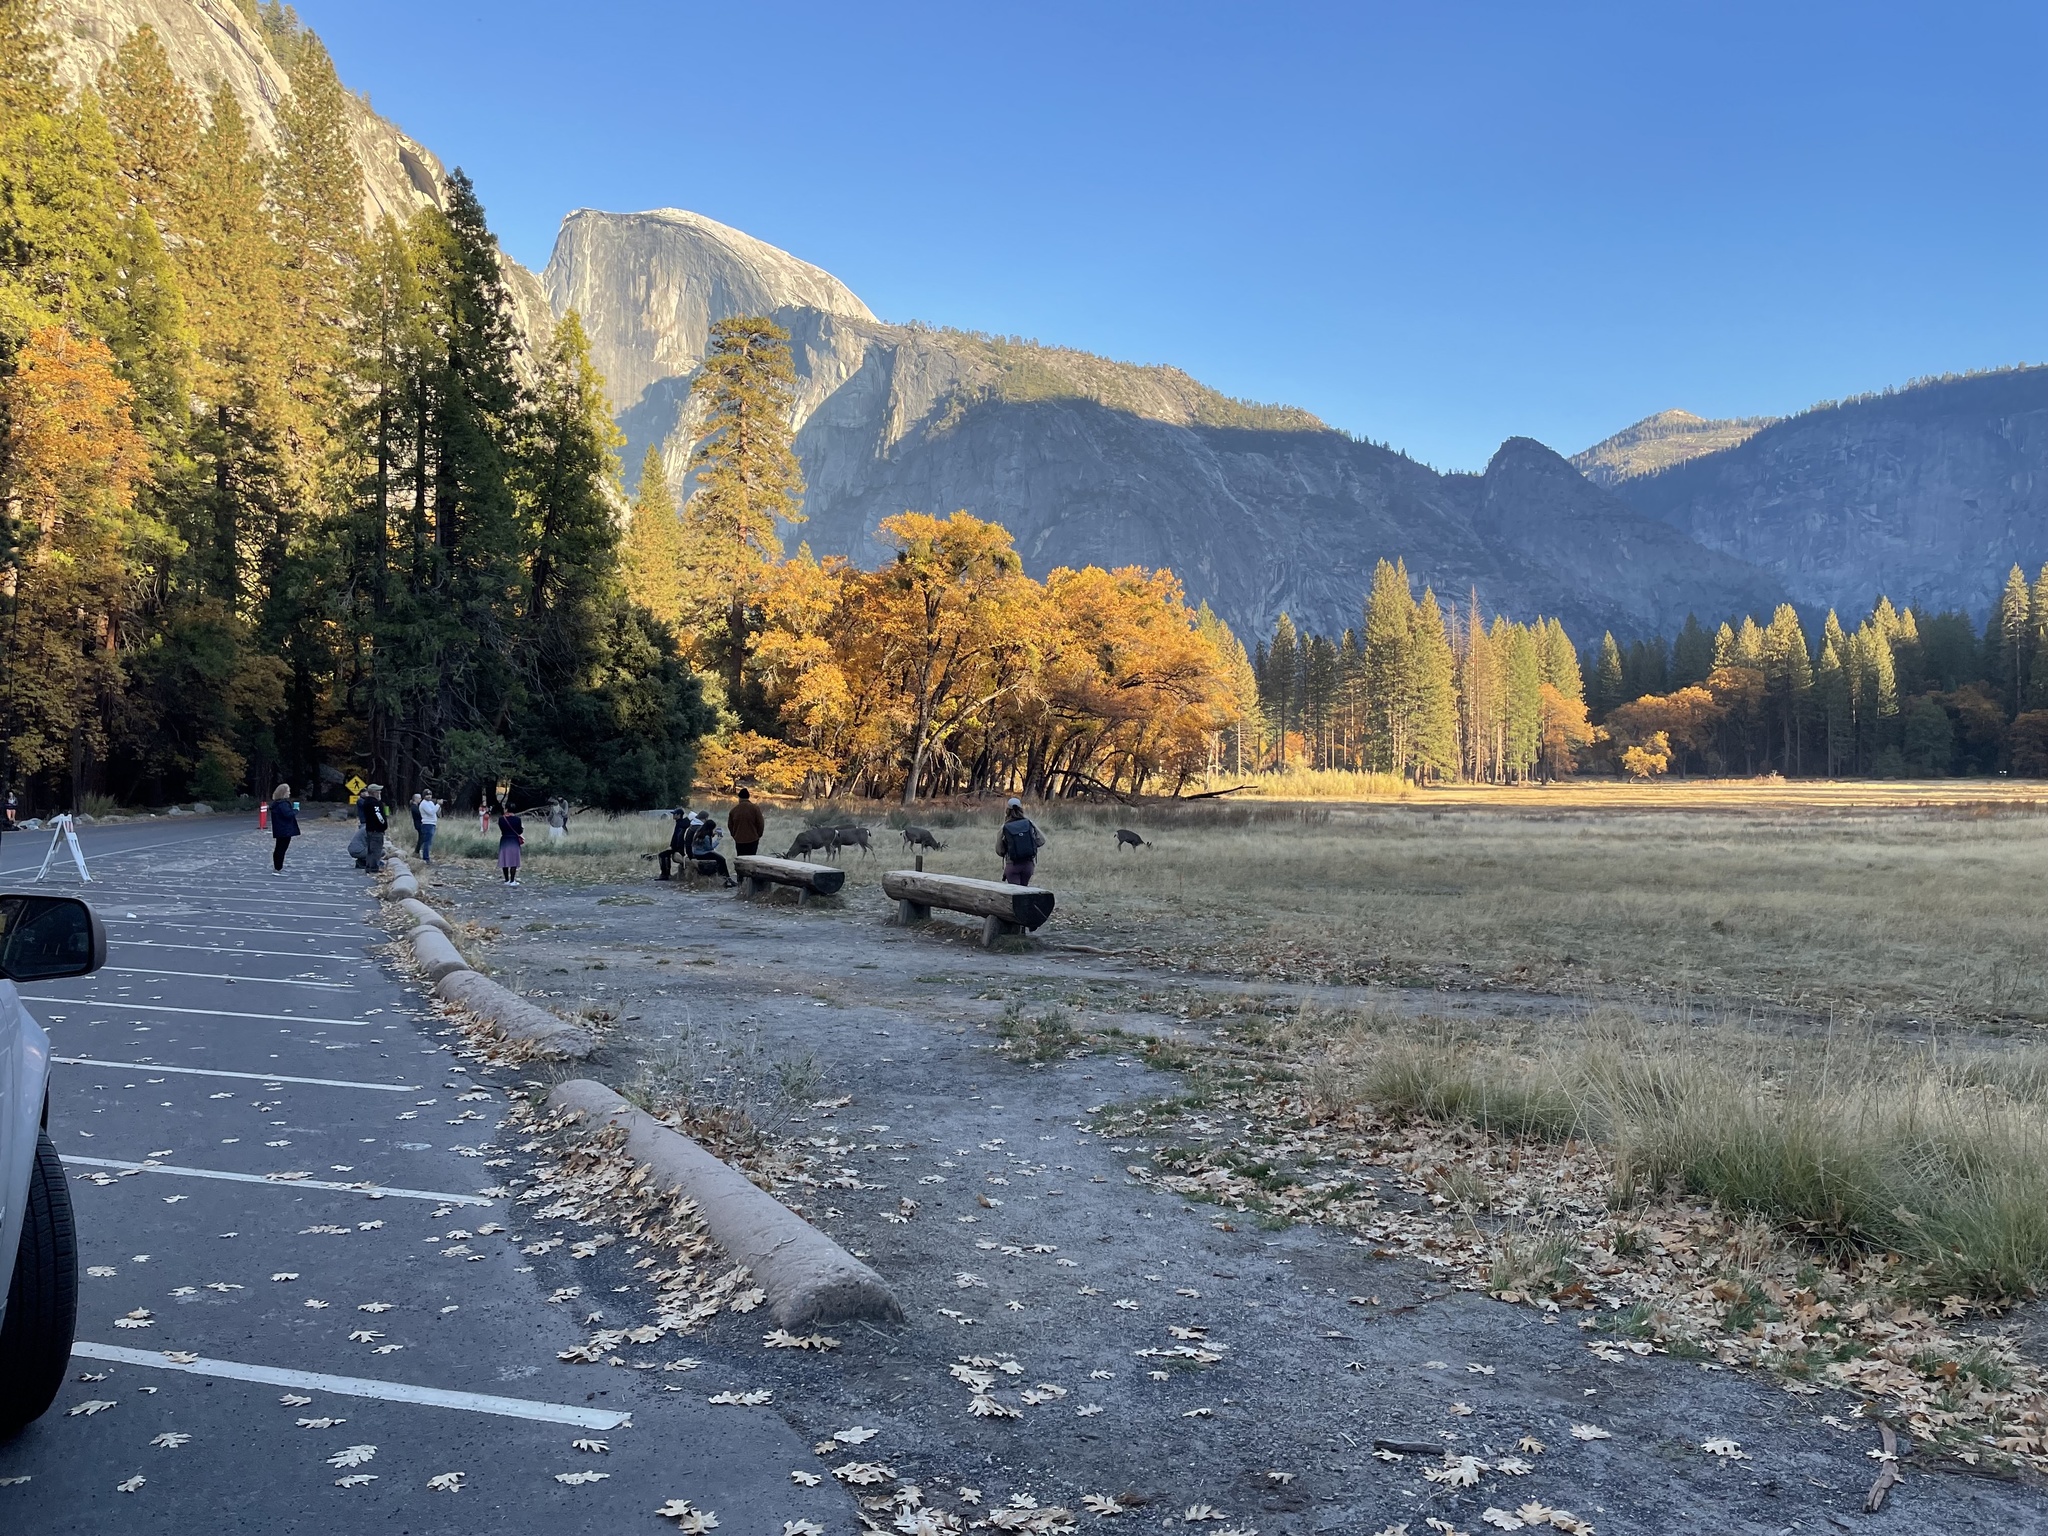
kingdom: Animalia
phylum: Chordata
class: Mammalia
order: Artiodactyla
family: Cervidae
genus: Odocoileus
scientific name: Odocoileus hemionus
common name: Mule deer
